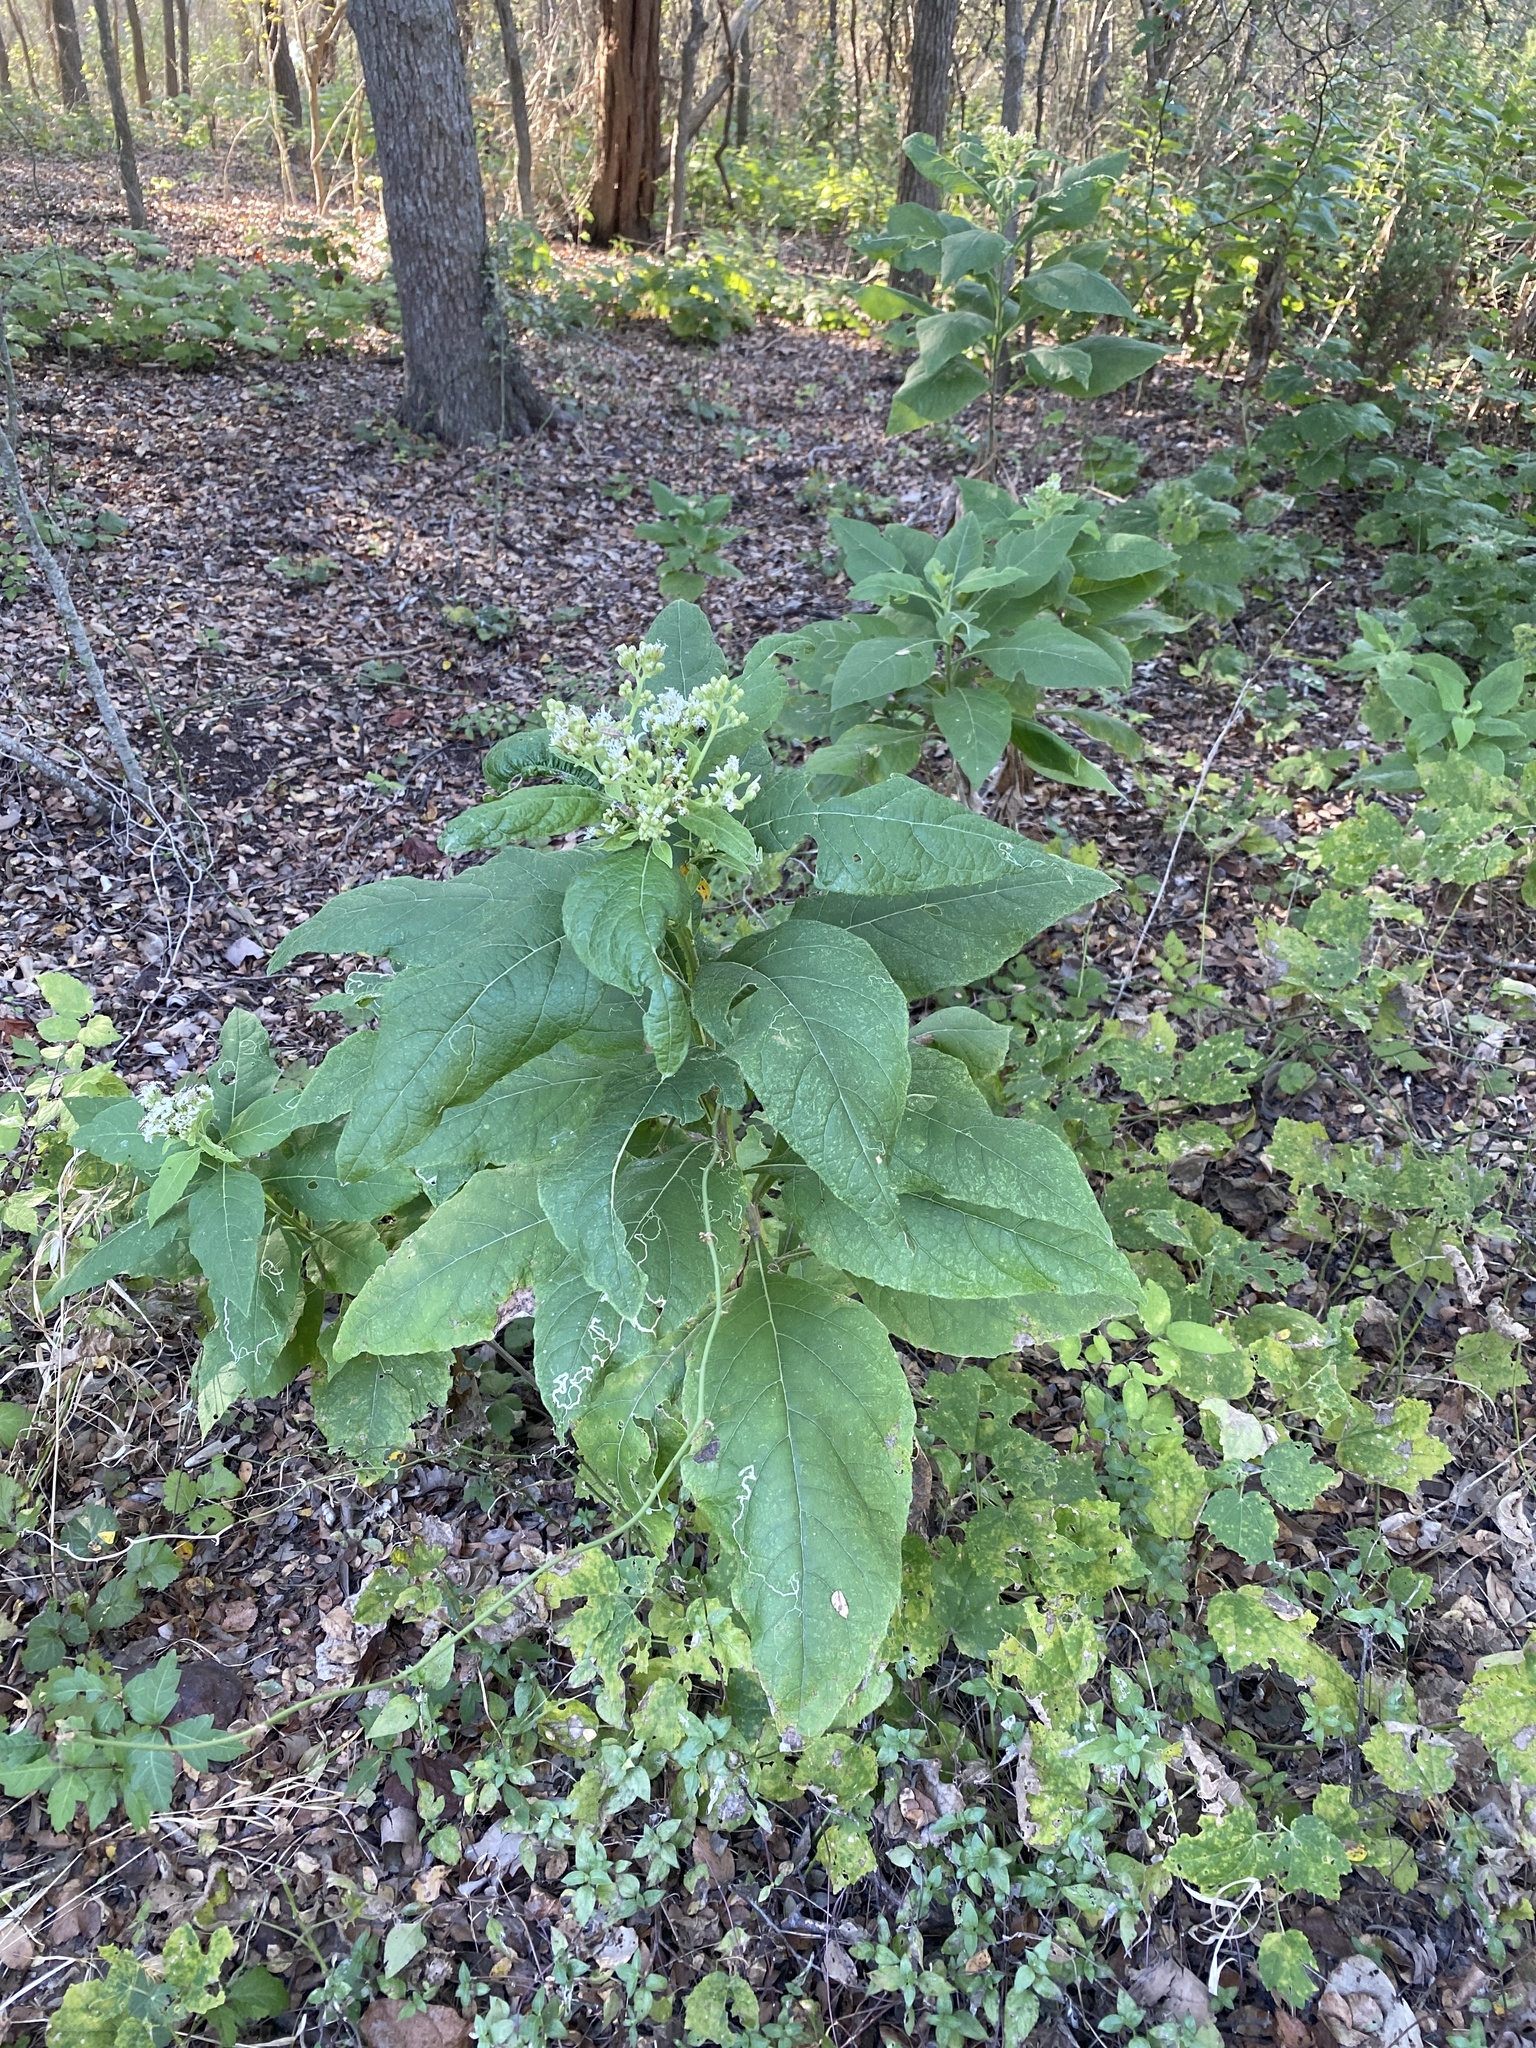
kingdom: Plantae
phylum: Tracheophyta
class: Magnoliopsida
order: Asterales
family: Asteraceae
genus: Verbesina
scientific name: Verbesina virginica
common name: Frostweed
